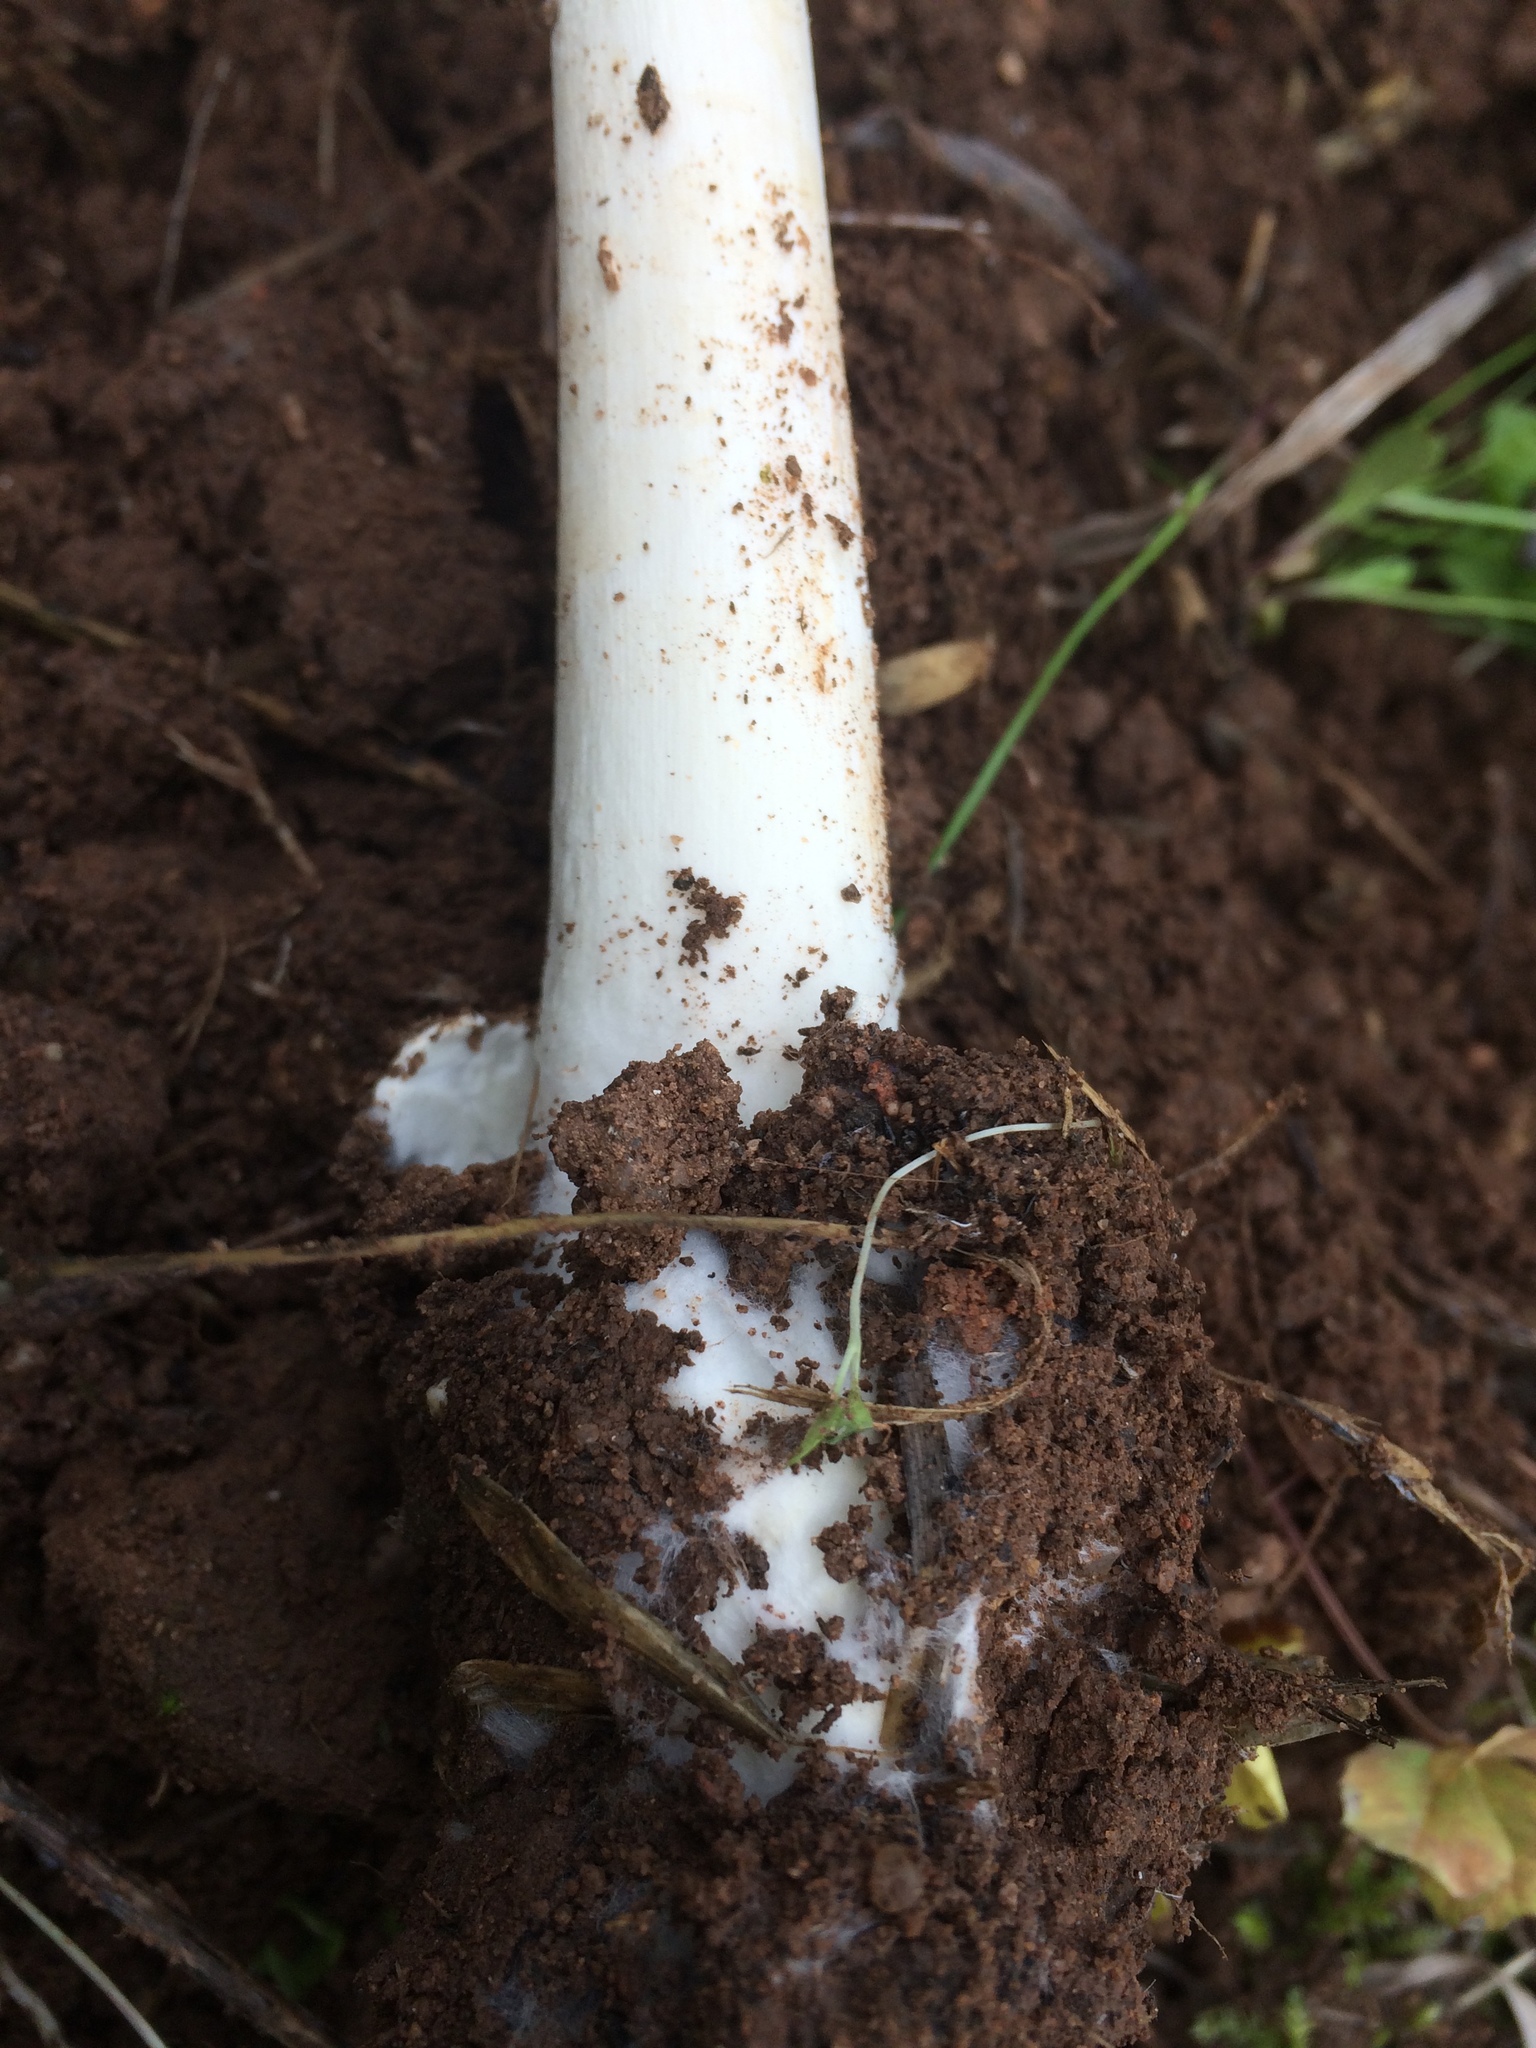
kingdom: Fungi
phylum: Basidiomycota
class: Agaricomycetes
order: Agaricales
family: Pluteaceae
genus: Volvopluteus
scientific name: Volvopluteus gloiocephalus
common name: Stubble rosegill
